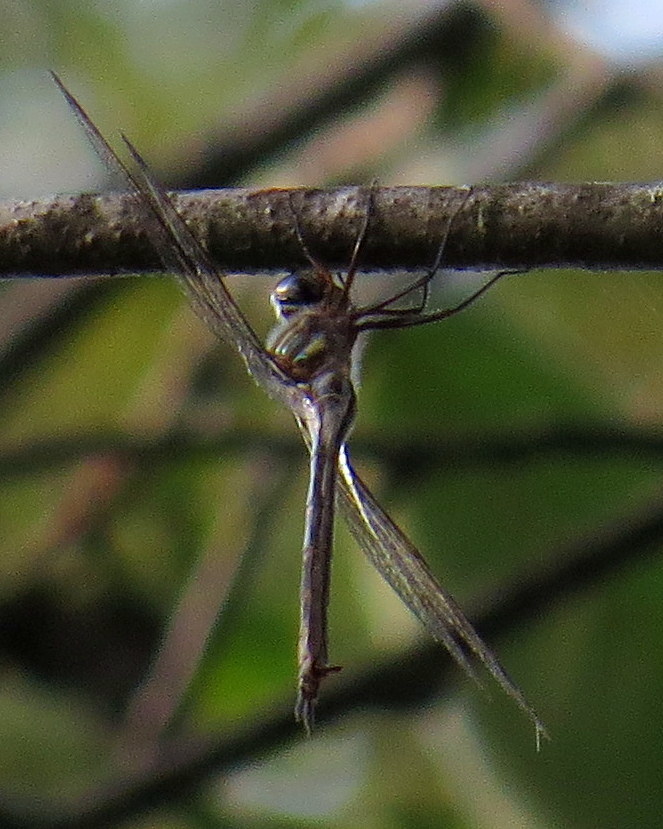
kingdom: Animalia
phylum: Arthropoda
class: Insecta
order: Odonata
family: Corduliidae
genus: Somatochlora
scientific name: Somatochlora tenebrosa
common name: Clamp-tipped emerald
